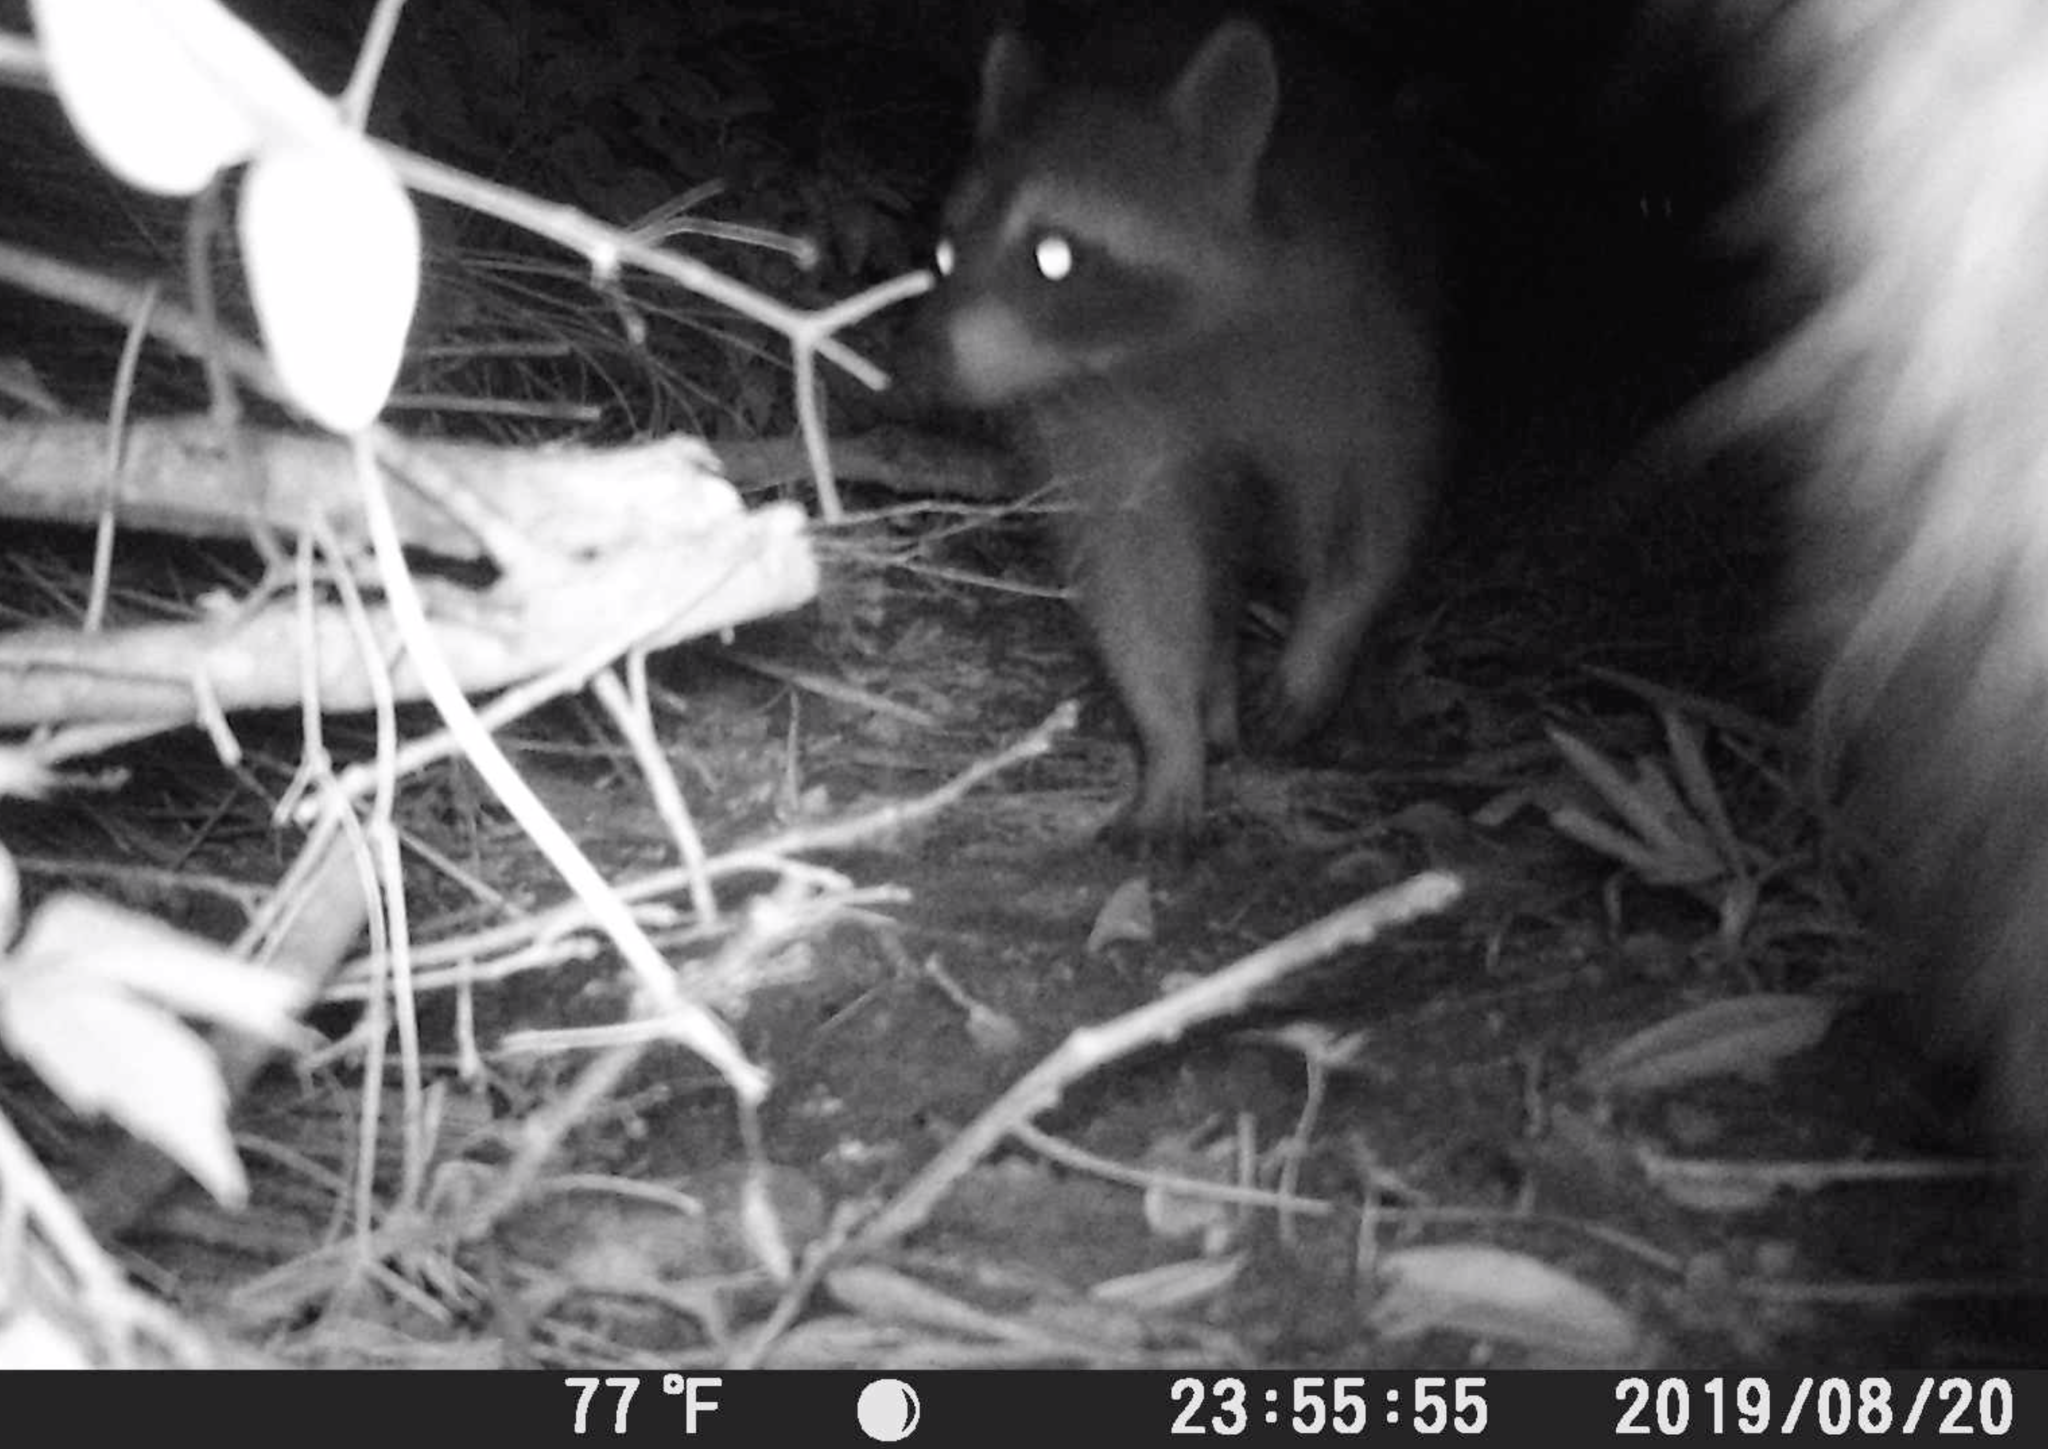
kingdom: Animalia
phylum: Chordata
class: Mammalia
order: Carnivora
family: Procyonidae
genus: Procyon
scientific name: Procyon lotor
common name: Raccoon
